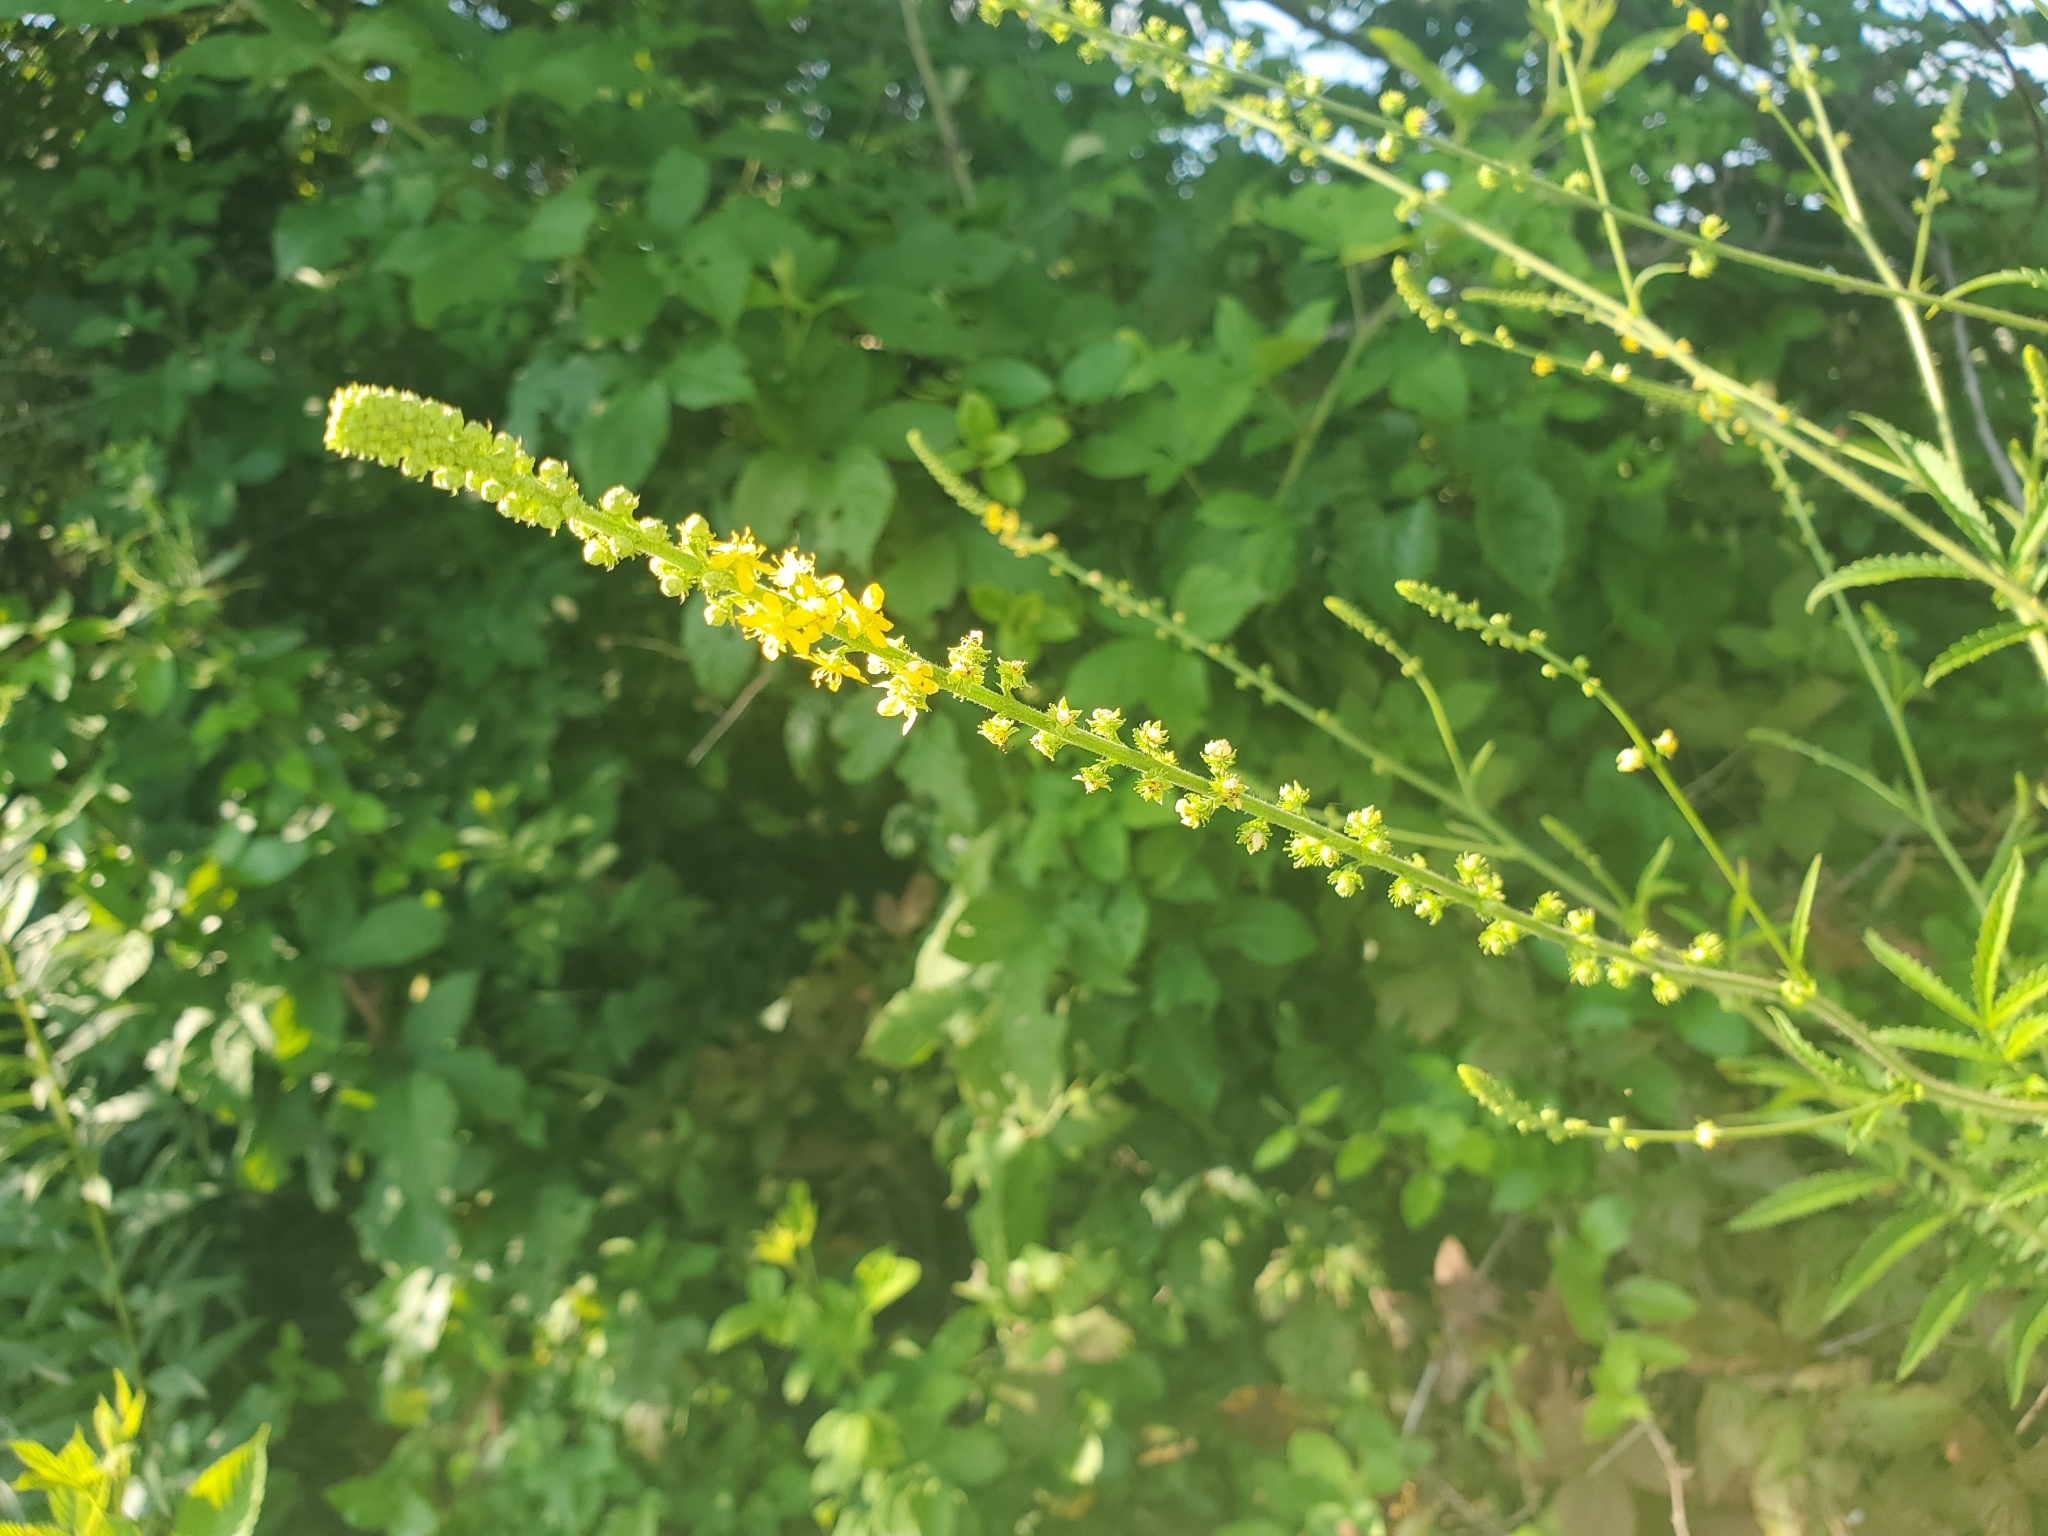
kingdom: Plantae
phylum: Tracheophyta
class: Magnoliopsida
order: Rosales
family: Rosaceae
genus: Agrimonia
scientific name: Agrimonia parviflora
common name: Harvest-lice
